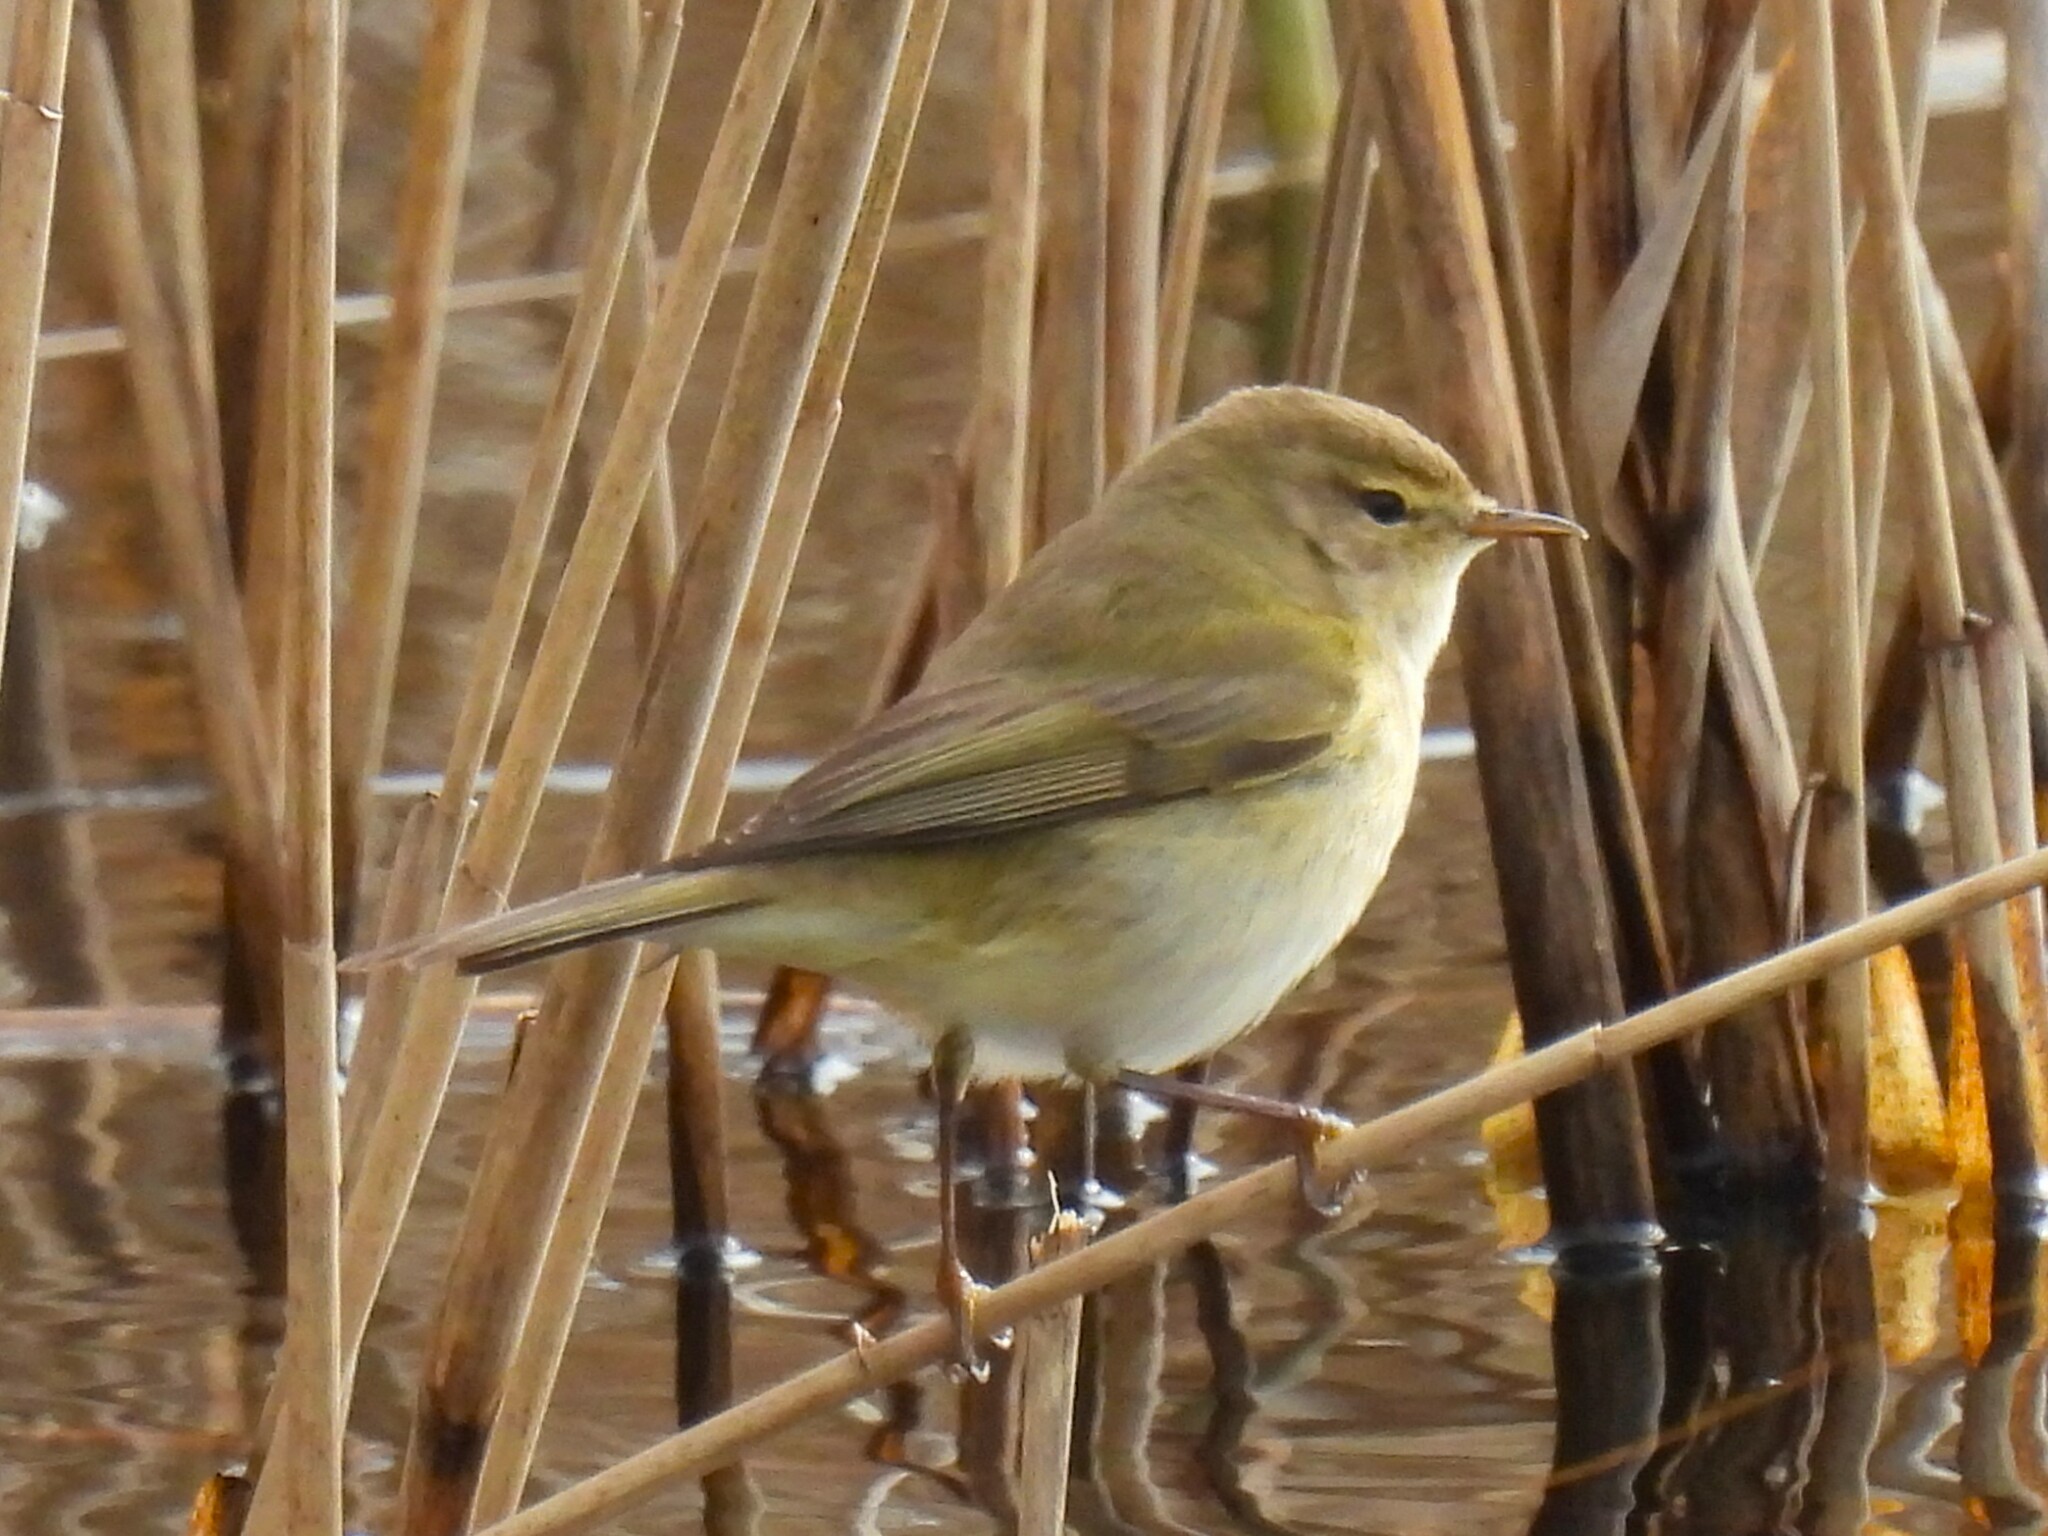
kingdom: Animalia
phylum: Chordata
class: Aves
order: Passeriformes
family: Phylloscopidae
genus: Phylloscopus
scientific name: Phylloscopus collybita
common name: Common chiffchaff
